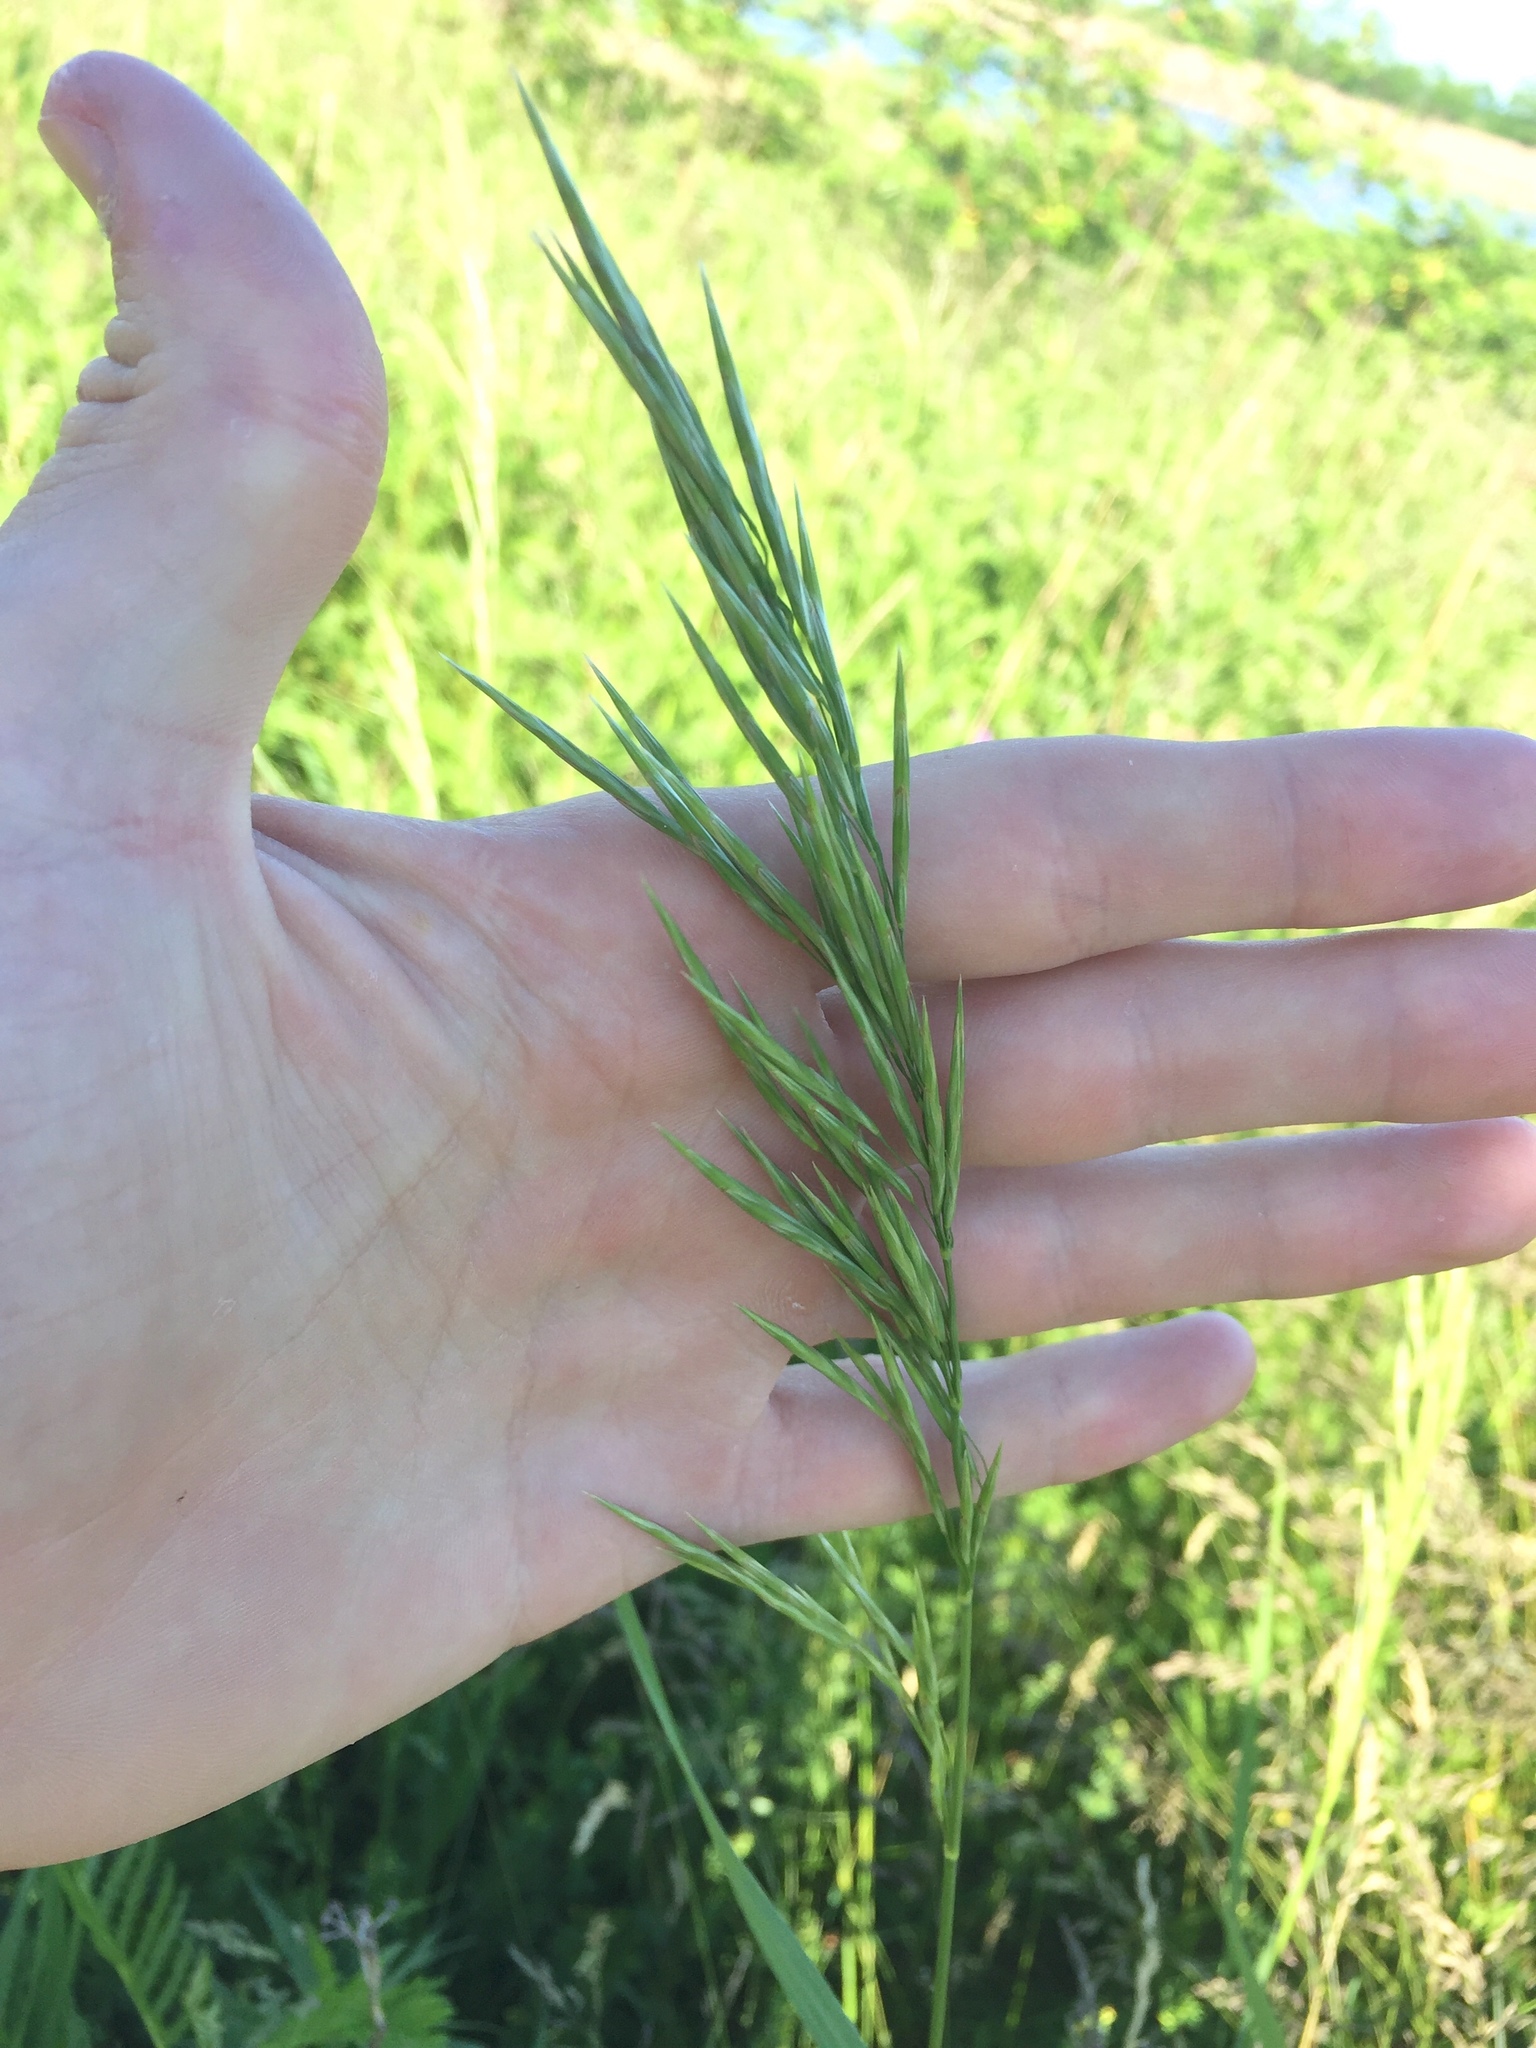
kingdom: Plantae
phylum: Tracheophyta
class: Liliopsida
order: Poales
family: Poaceae
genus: Bromus
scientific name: Bromus inermis
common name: Smooth brome
